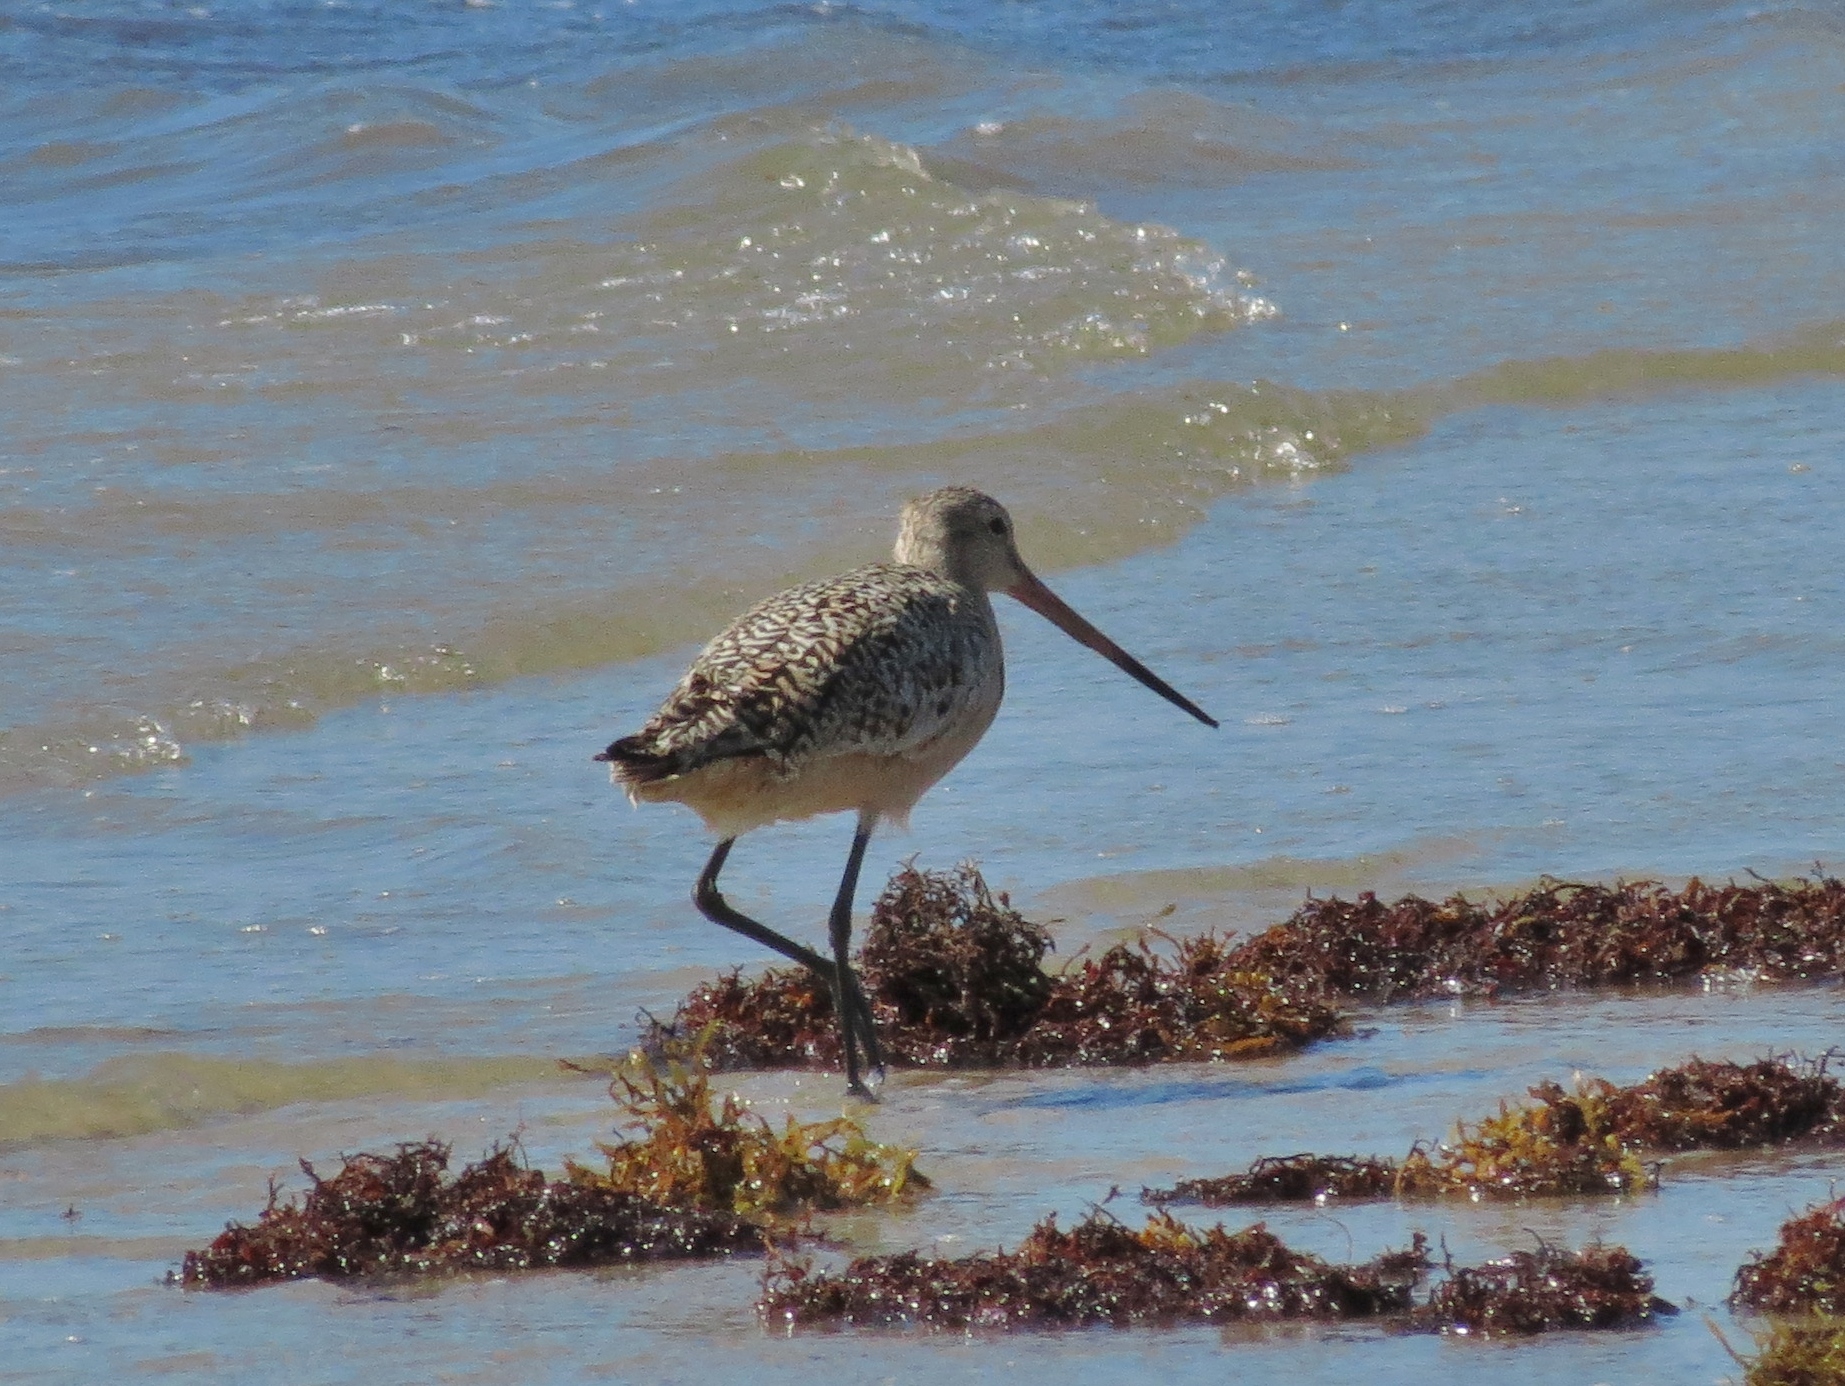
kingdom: Animalia
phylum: Chordata
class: Aves
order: Charadriiformes
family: Scolopacidae
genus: Limosa
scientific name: Limosa fedoa
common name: Marbled godwit
